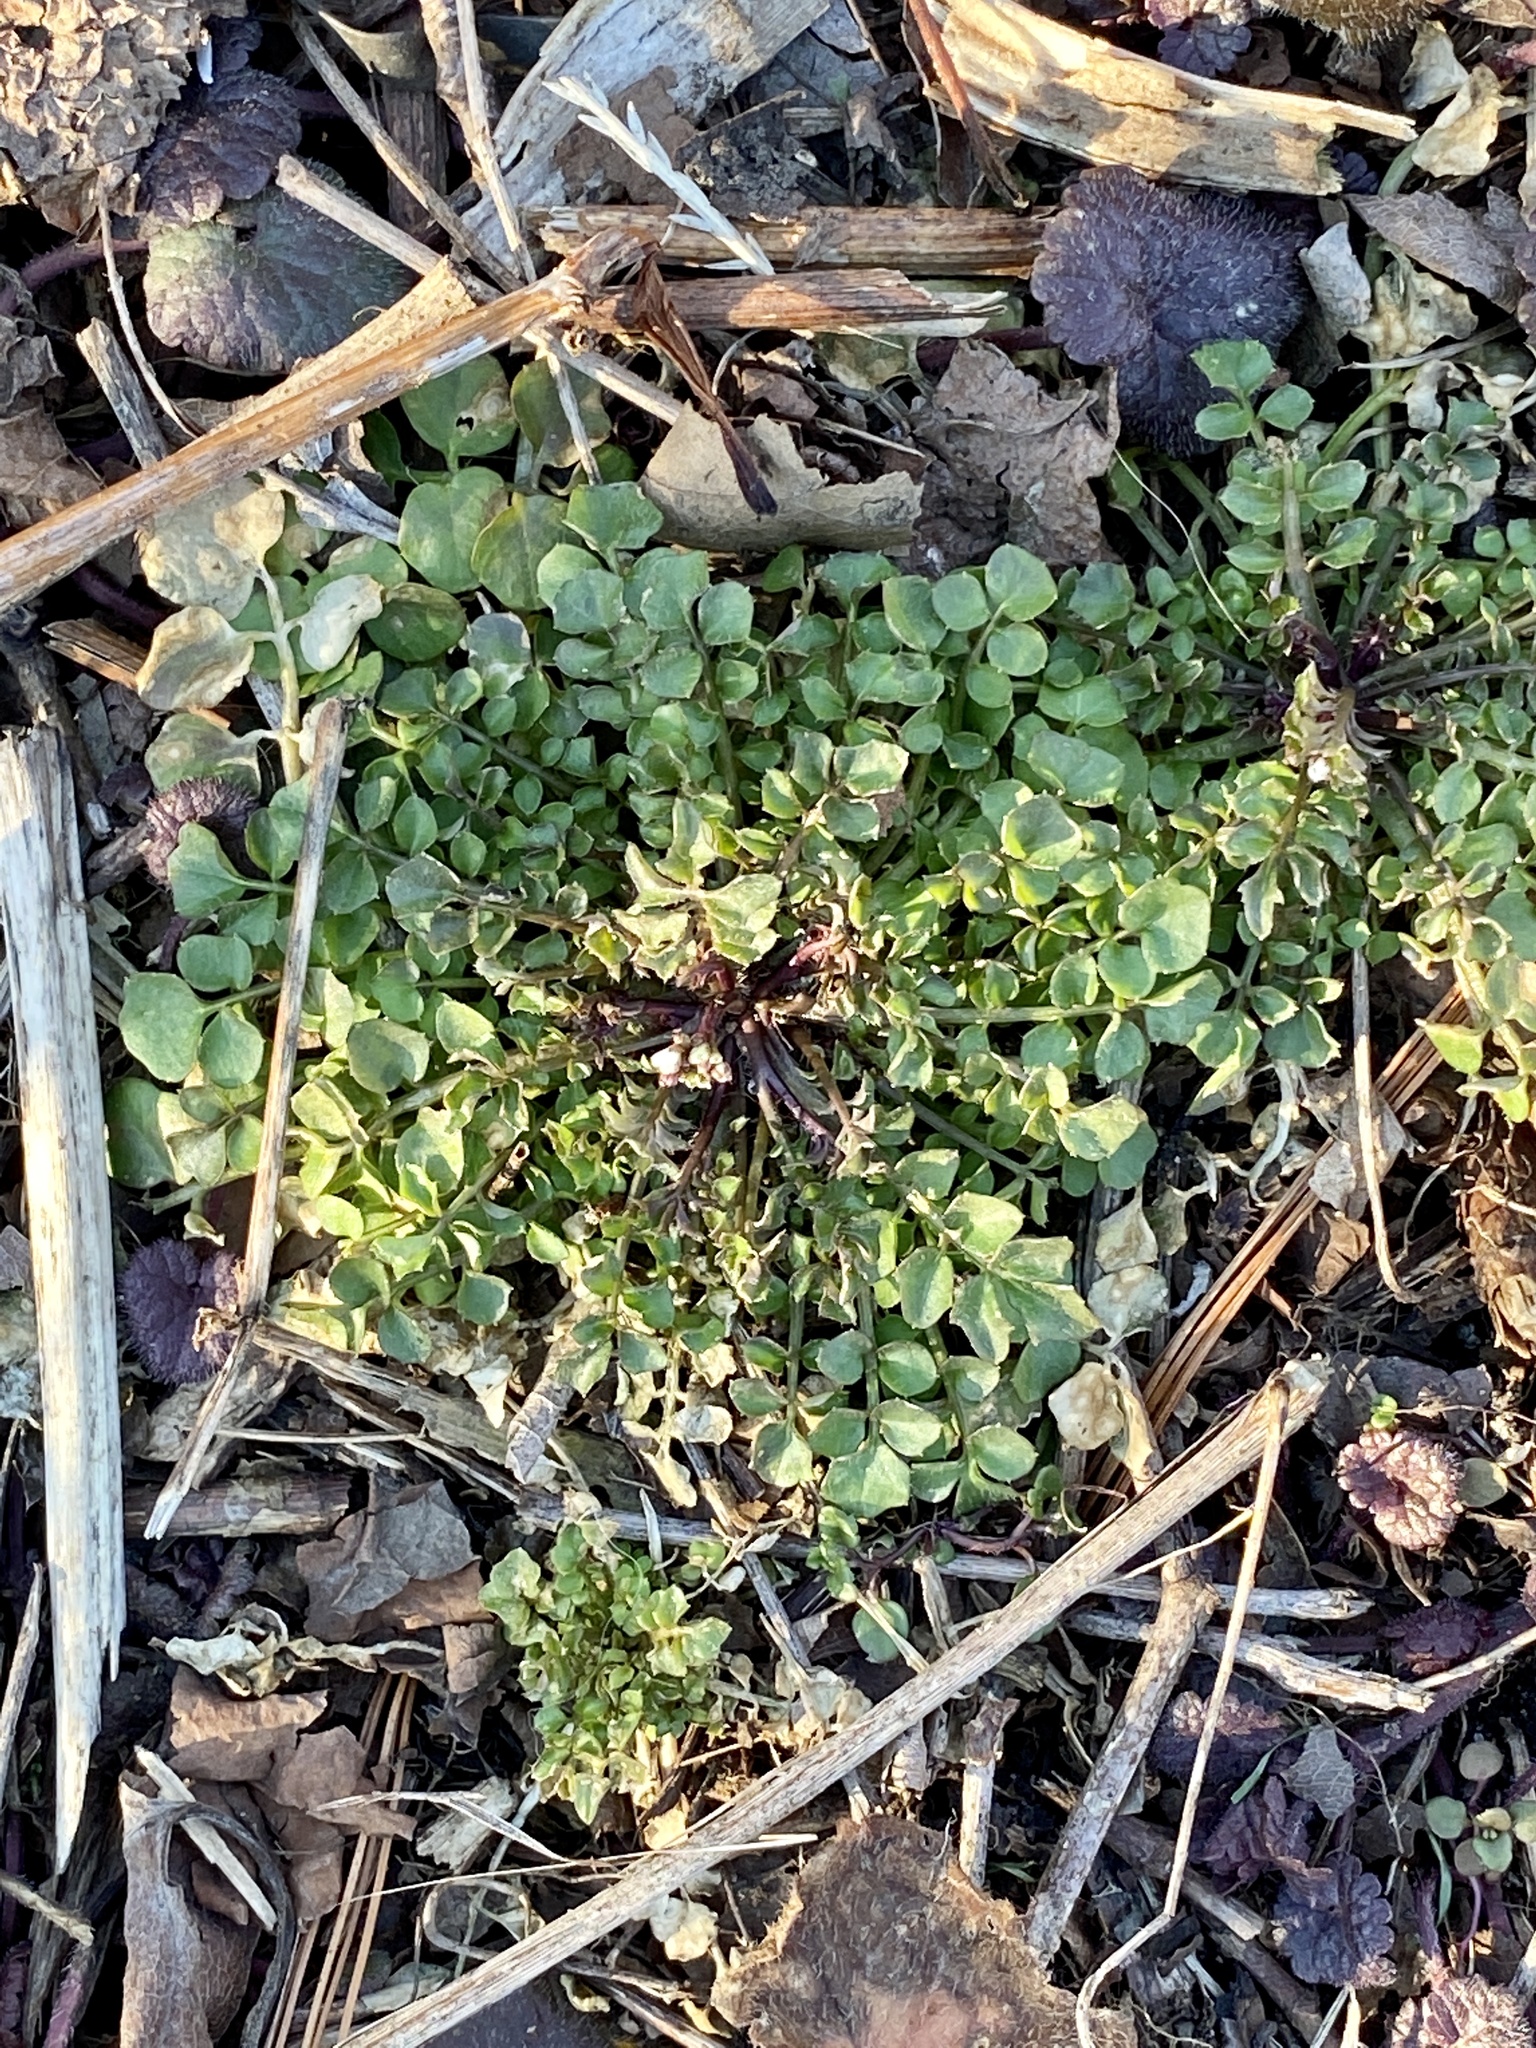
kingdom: Plantae
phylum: Tracheophyta
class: Magnoliopsida
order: Brassicales
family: Brassicaceae
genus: Cardamine
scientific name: Cardamine hirsuta
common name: Hairy bittercress
